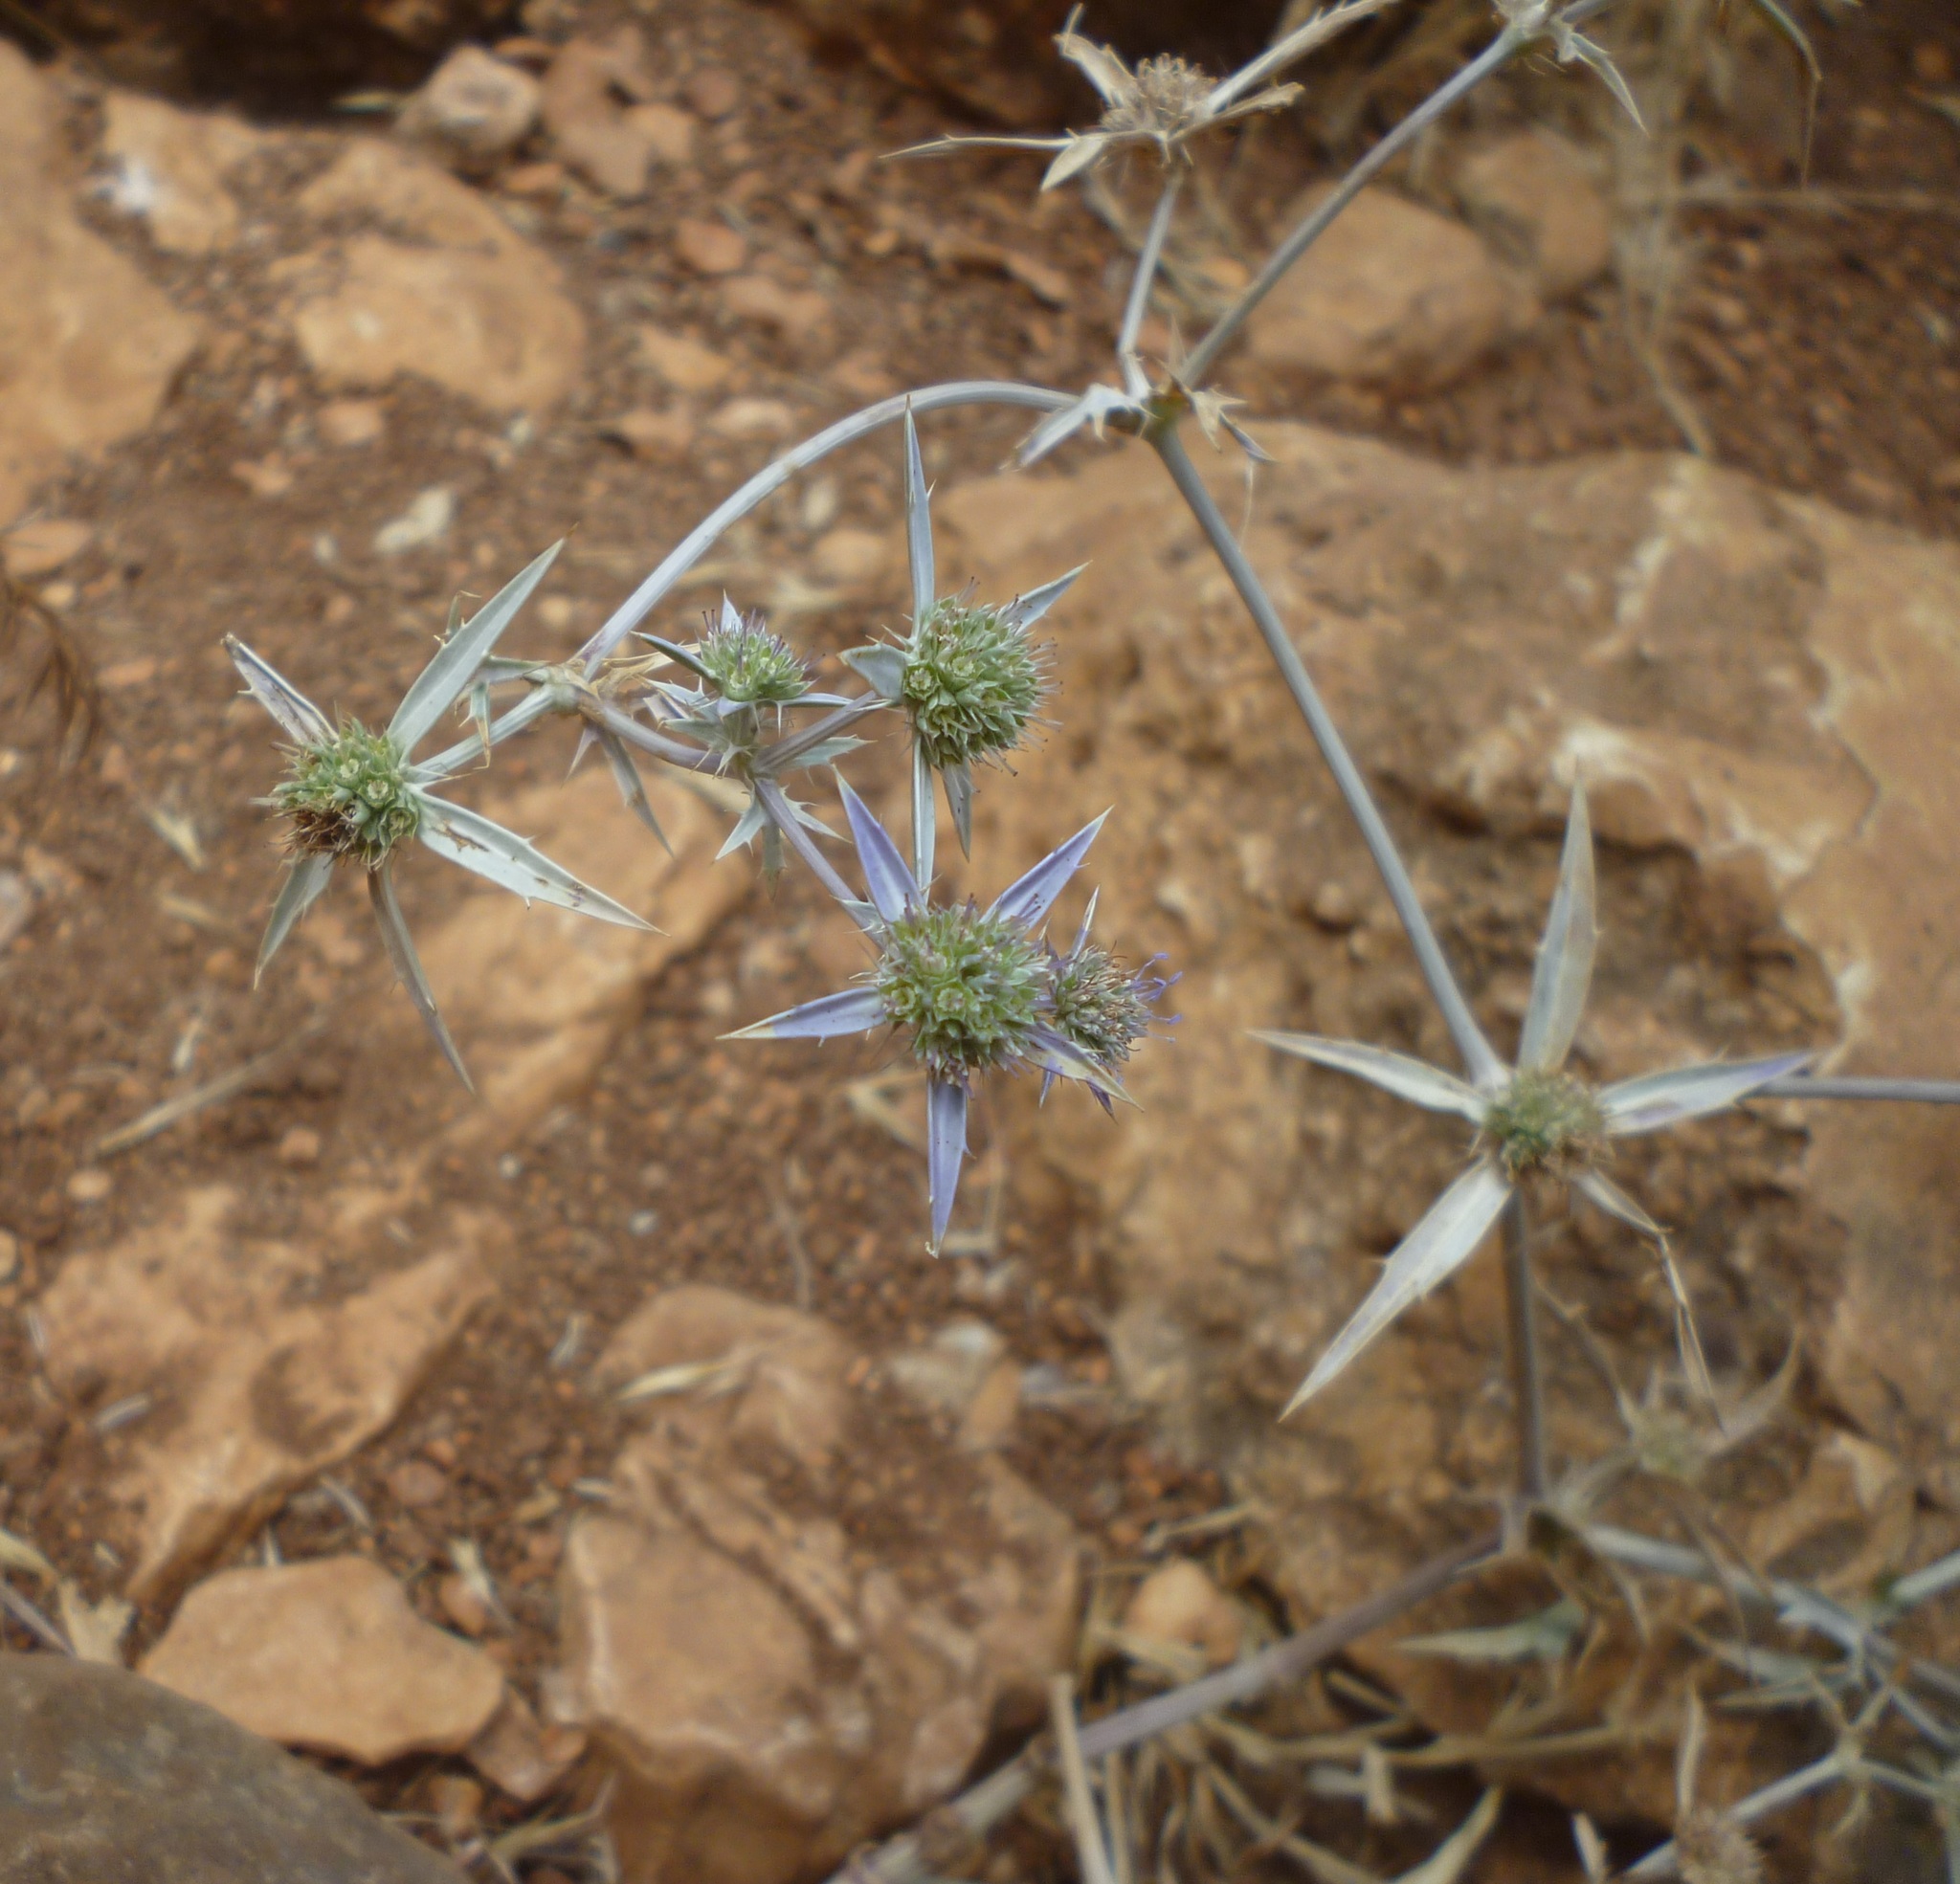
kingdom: Plantae
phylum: Tracheophyta
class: Magnoliopsida
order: Apiales
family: Apiaceae
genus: Eryngium
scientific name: Eryngium creticum
